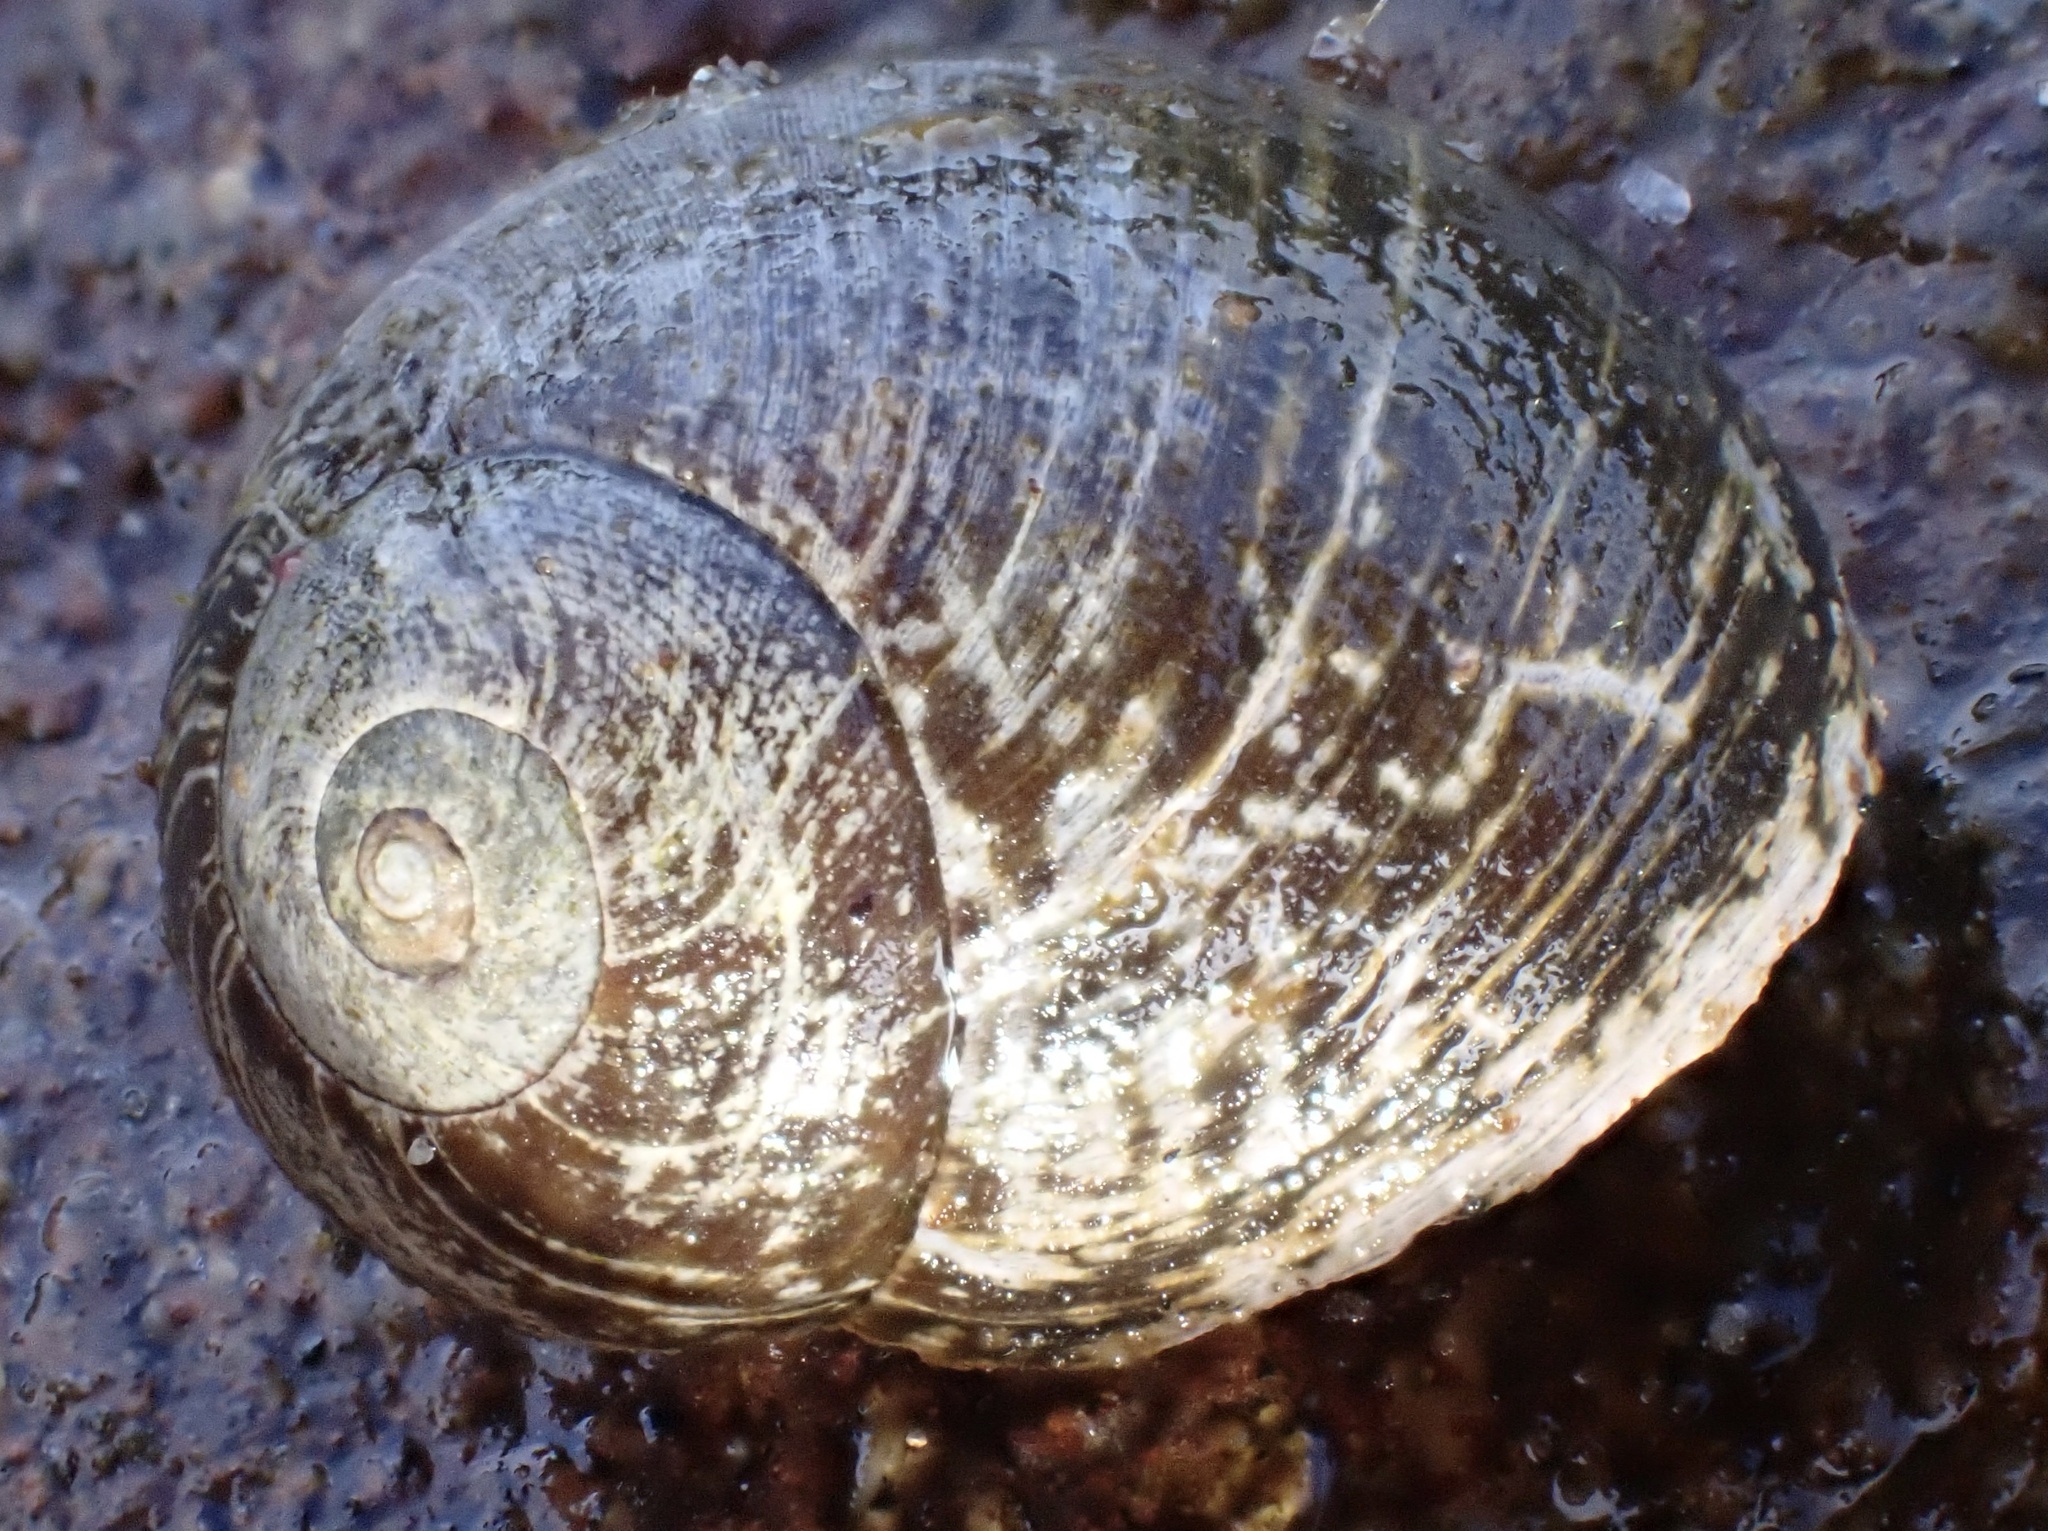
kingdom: Animalia
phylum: Mollusca
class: Gastropoda
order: Littorinimorpha
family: Littorinidae
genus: Littorina
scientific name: Littorina
